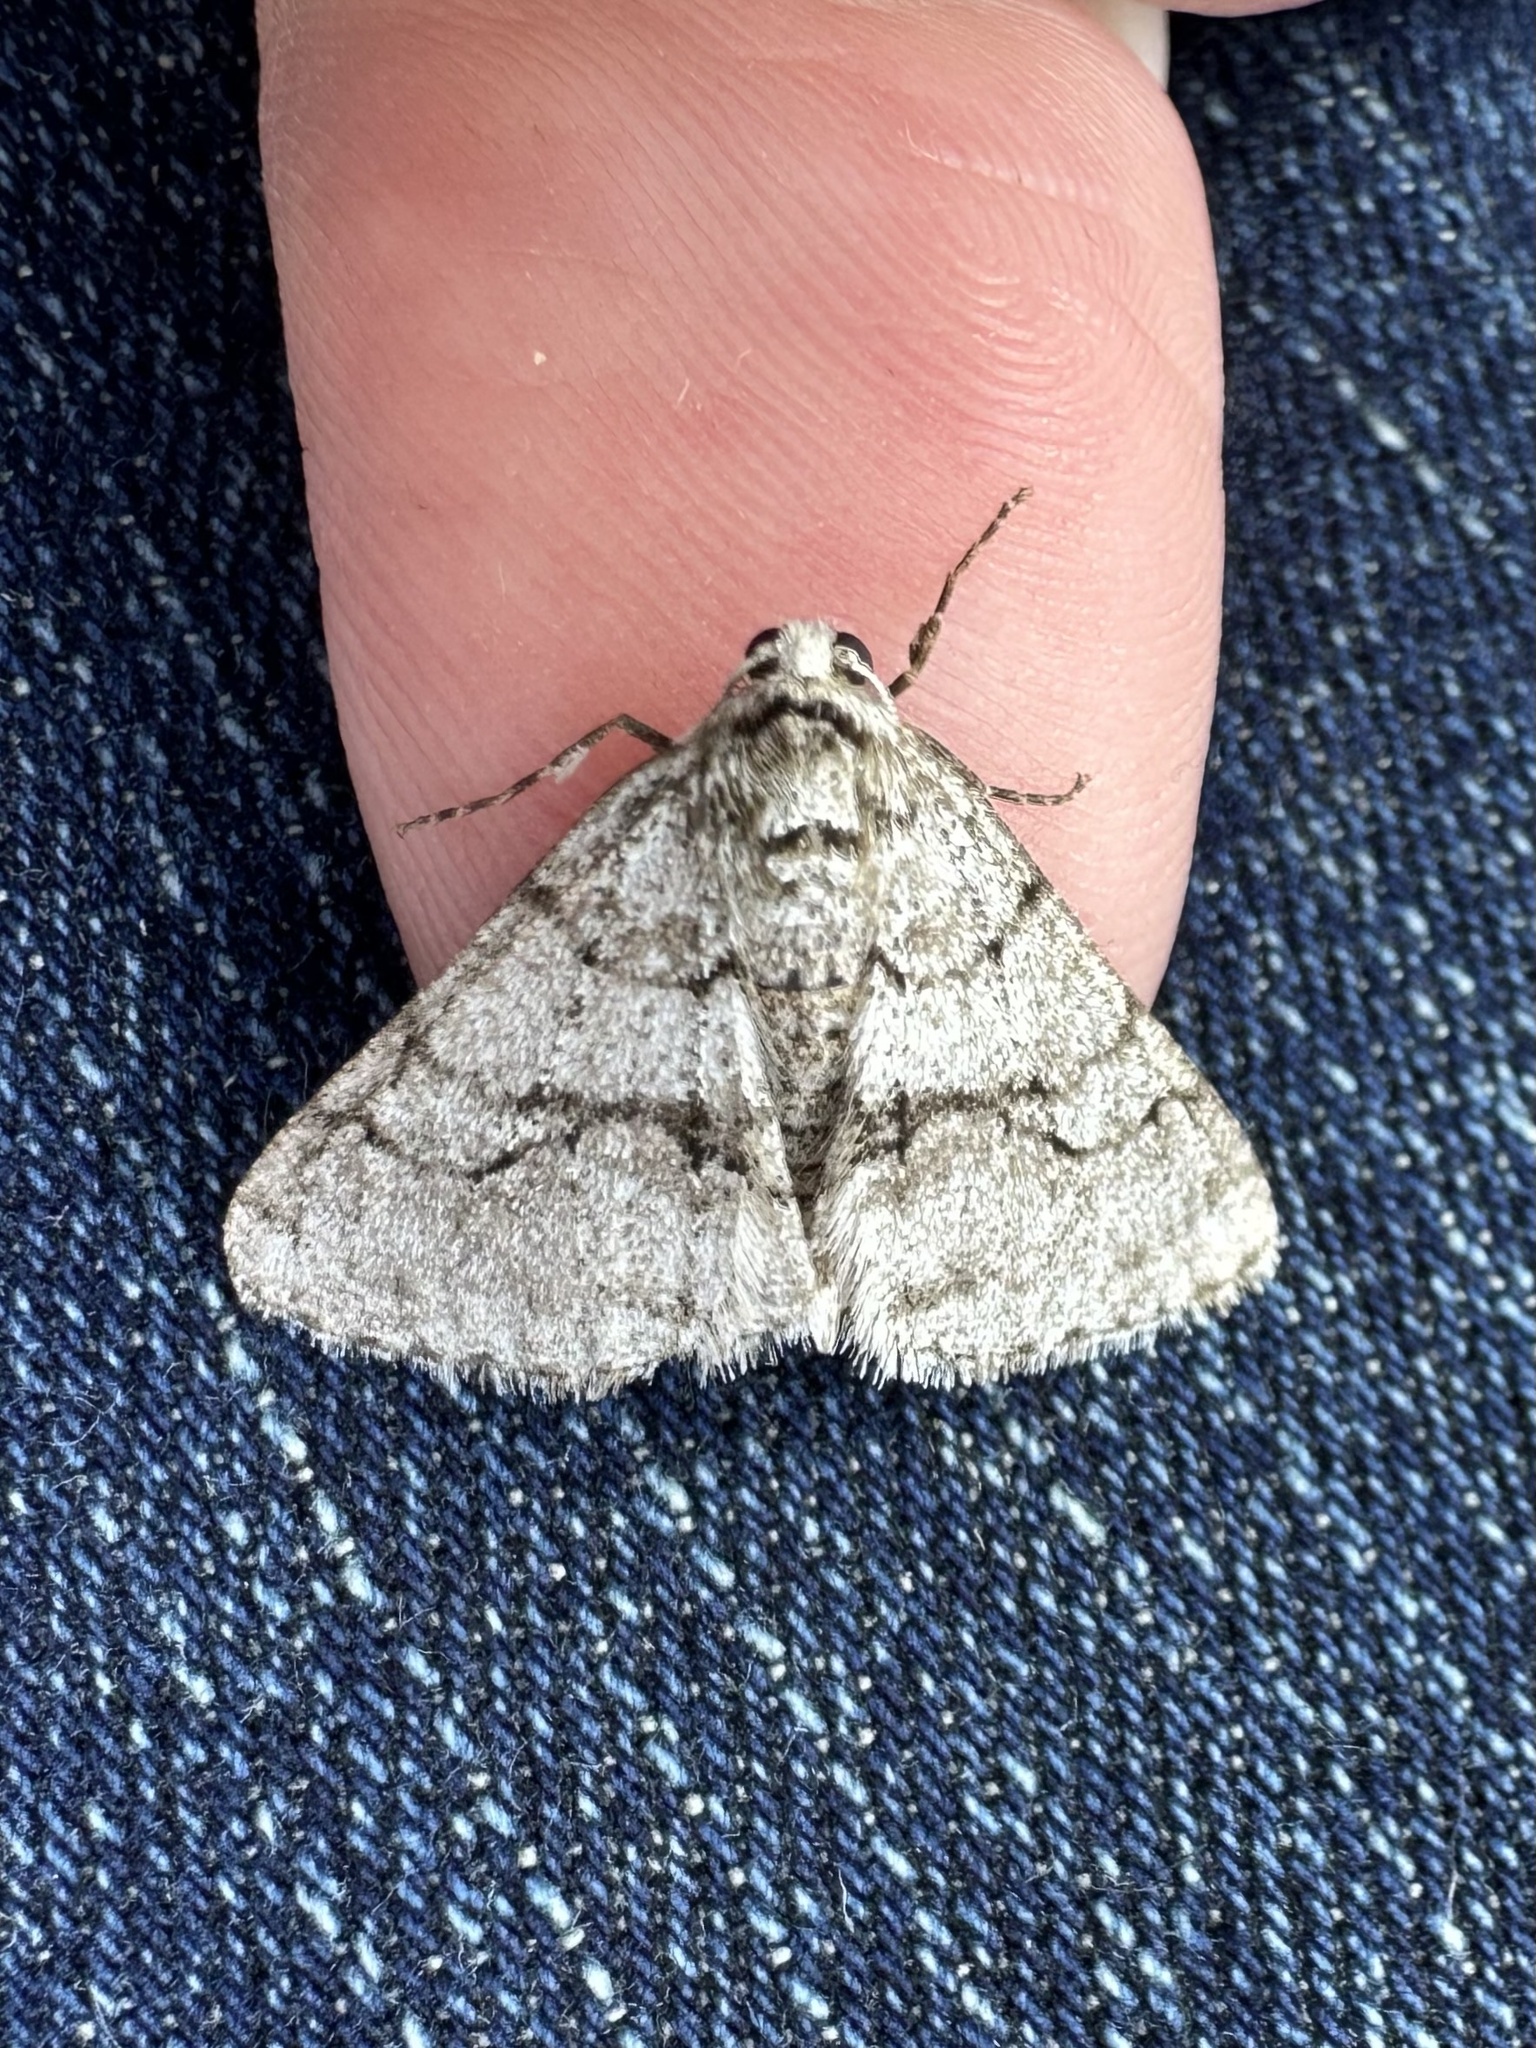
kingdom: Animalia
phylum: Arthropoda
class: Insecta
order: Lepidoptera
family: Geometridae
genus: Phigalia
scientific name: Phigalia titea
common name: Spiny looper
